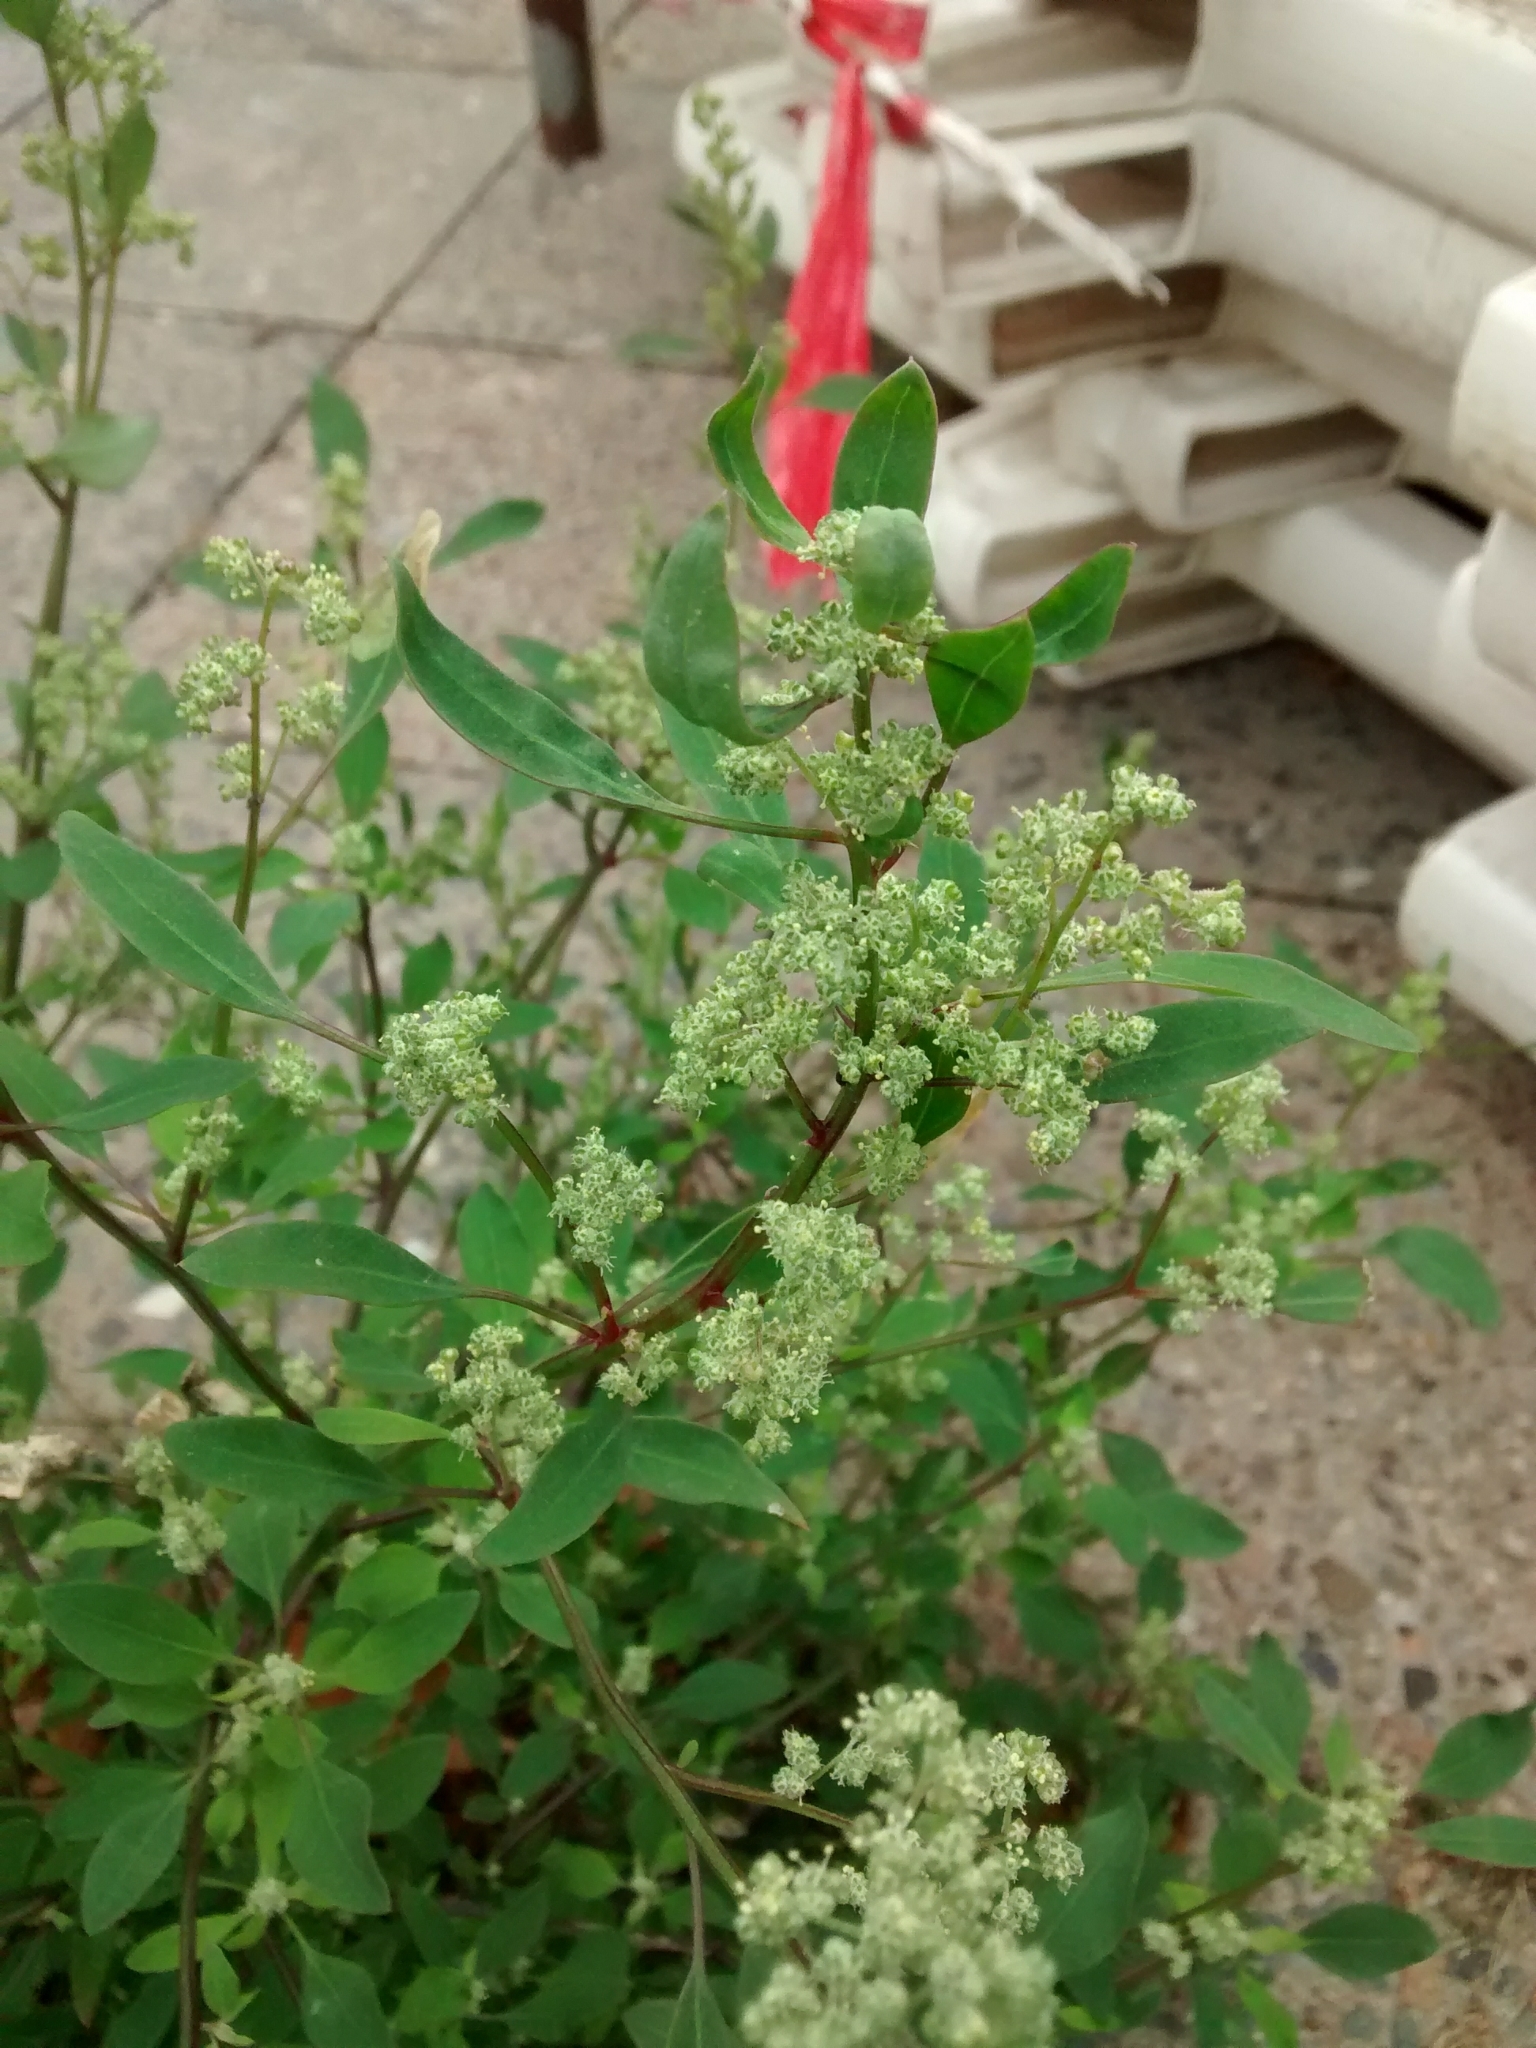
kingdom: Plantae
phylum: Tracheophyta
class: Magnoliopsida
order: Caryophyllales
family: Amaranthaceae
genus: Chenopodium
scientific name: Chenopodium album
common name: Fat-hen
